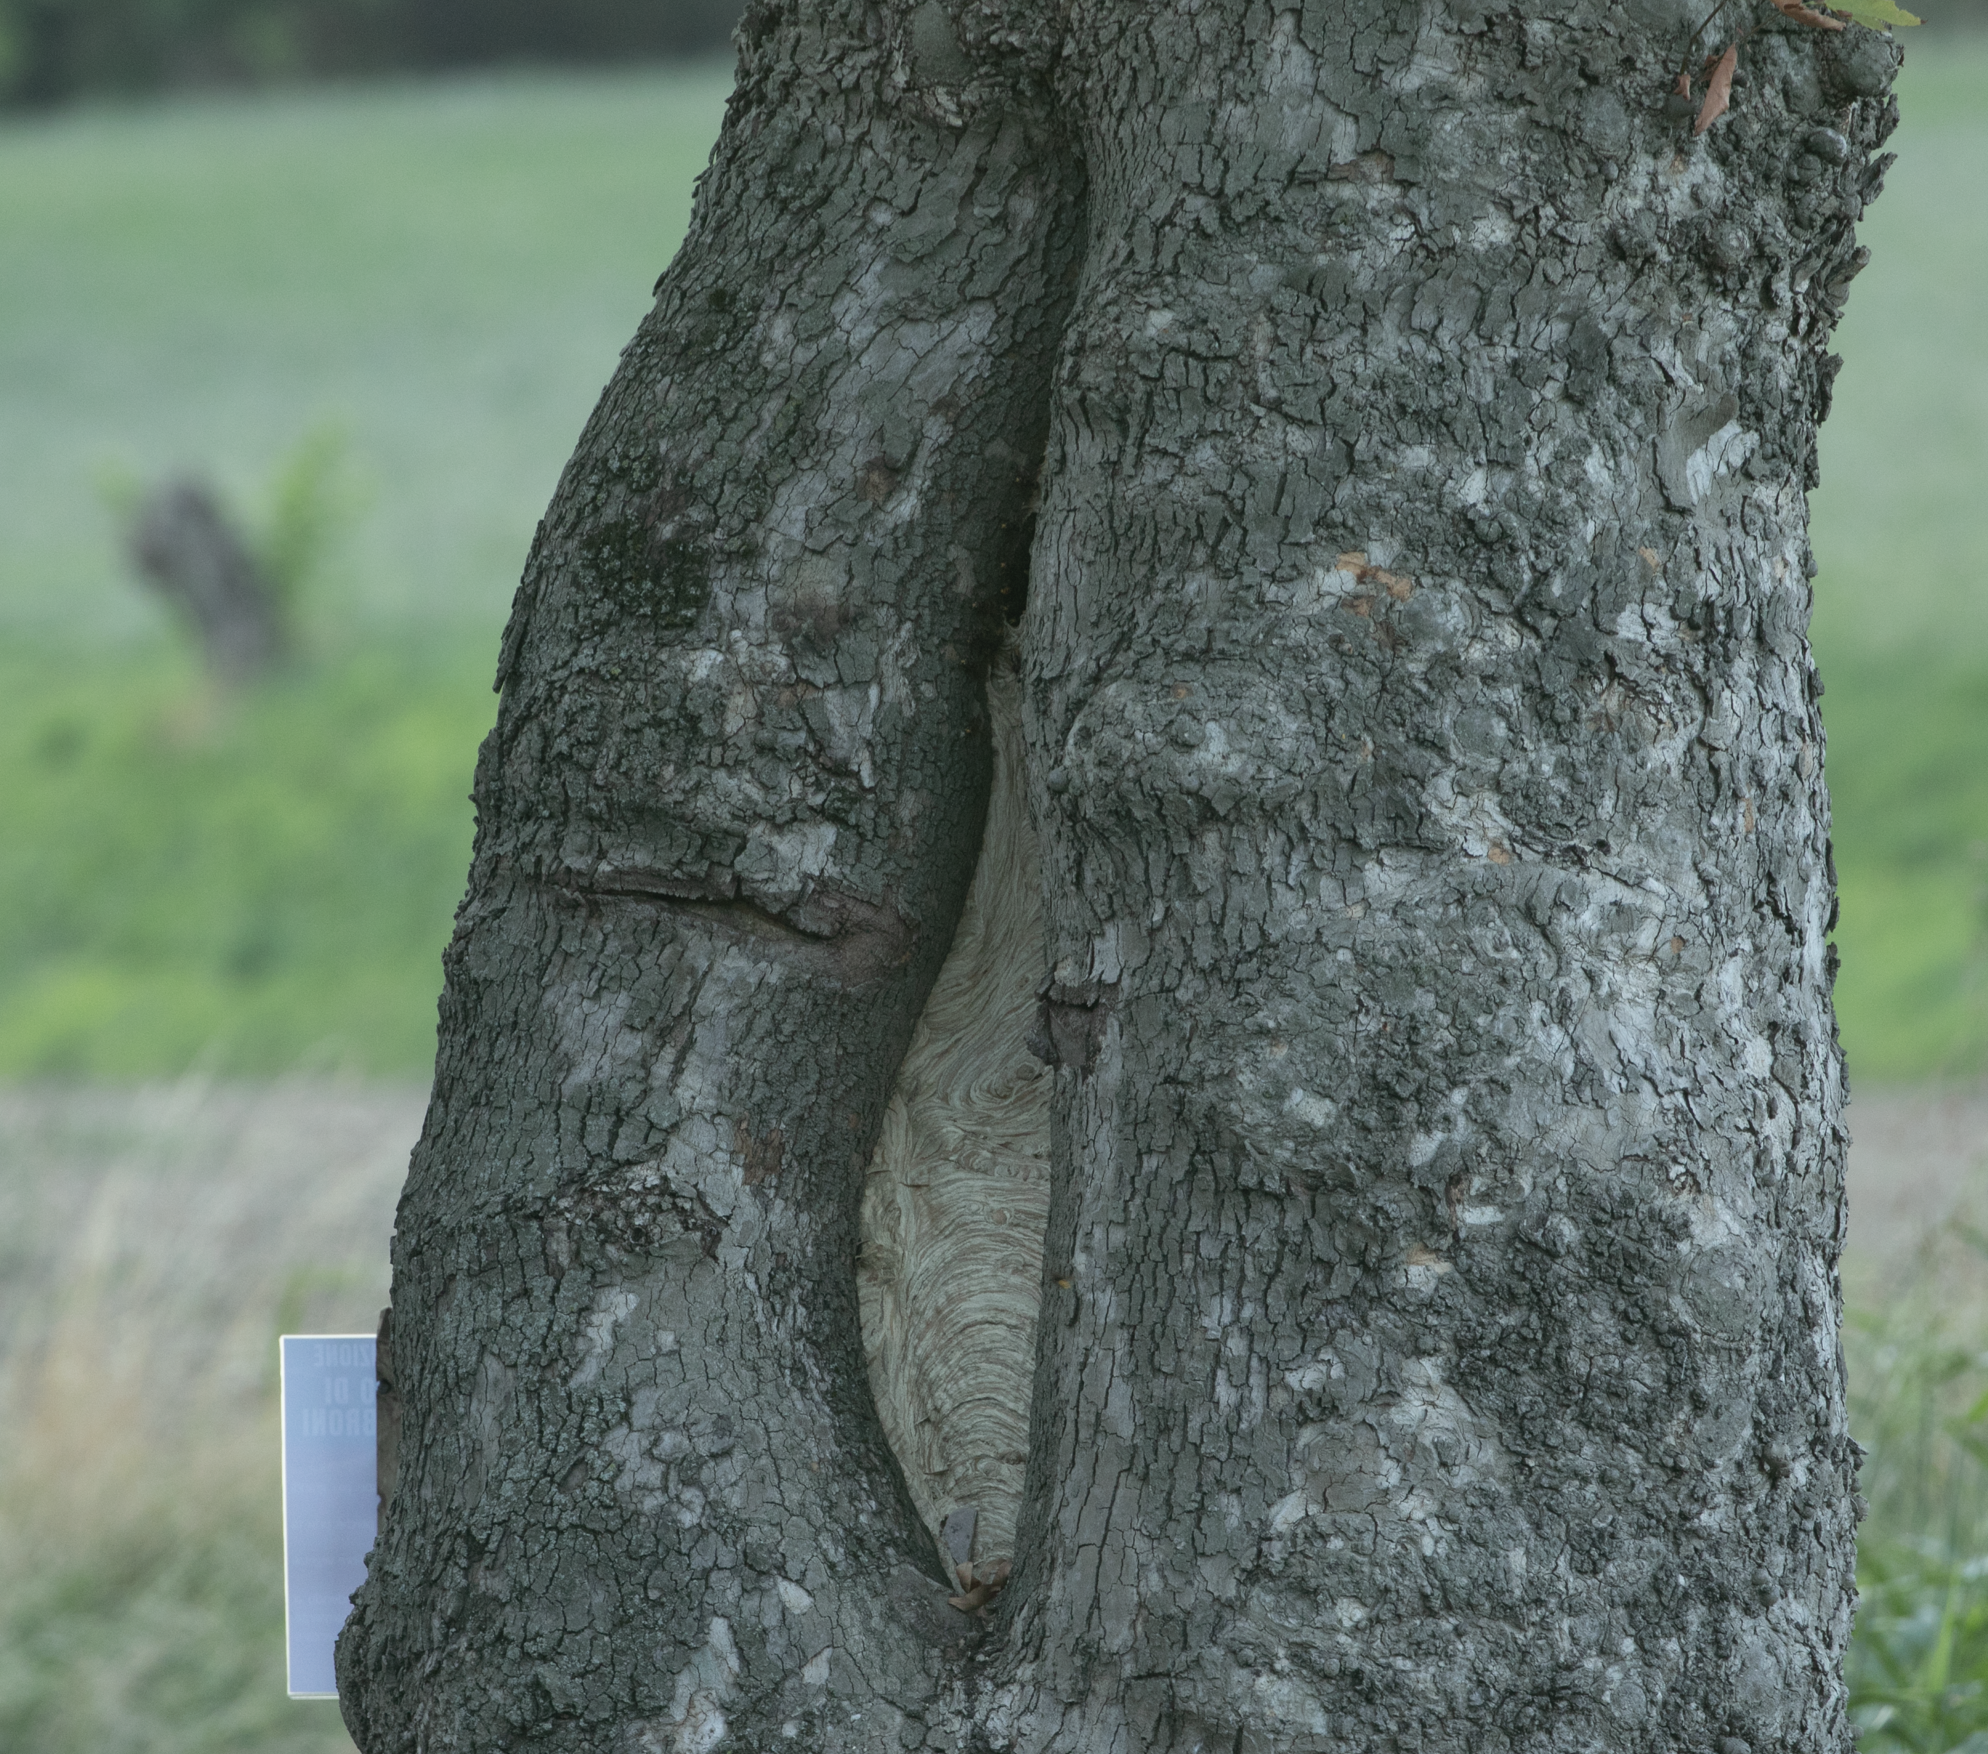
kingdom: Animalia
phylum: Arthropoda
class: Insecta
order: Hymenoptera
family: Vespidae
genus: Vespa
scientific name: Vespa crabro
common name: Hornet
